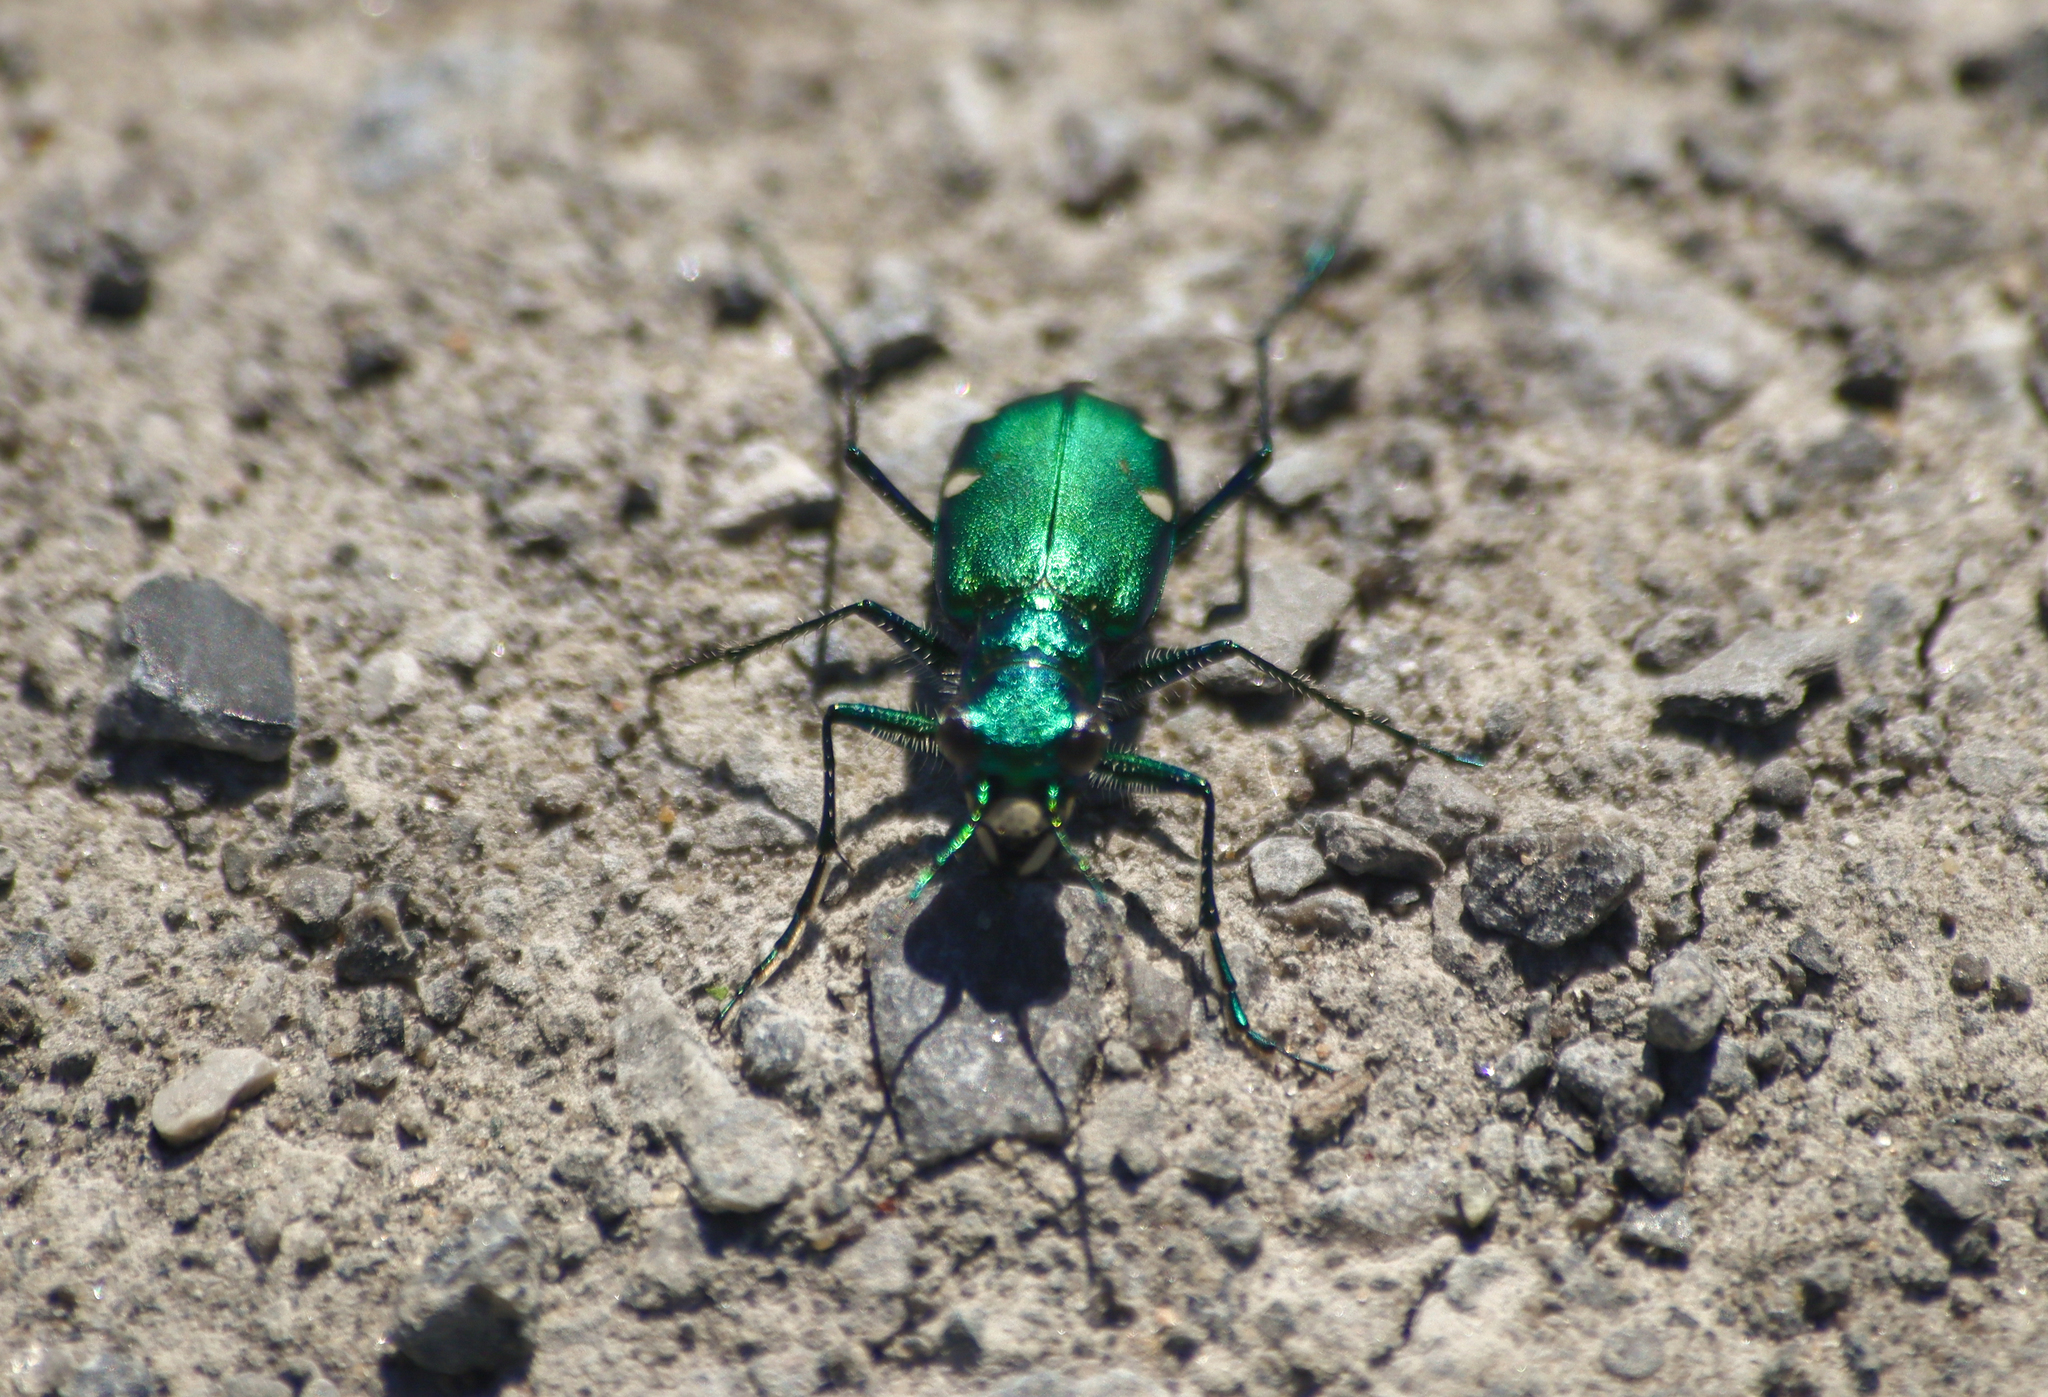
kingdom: Animalia
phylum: Arthropoda
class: Insecta
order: Coleoptera
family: Carabidae
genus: Cicindela
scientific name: Cicindela sexguttata
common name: Six-spotted tiger beetle
